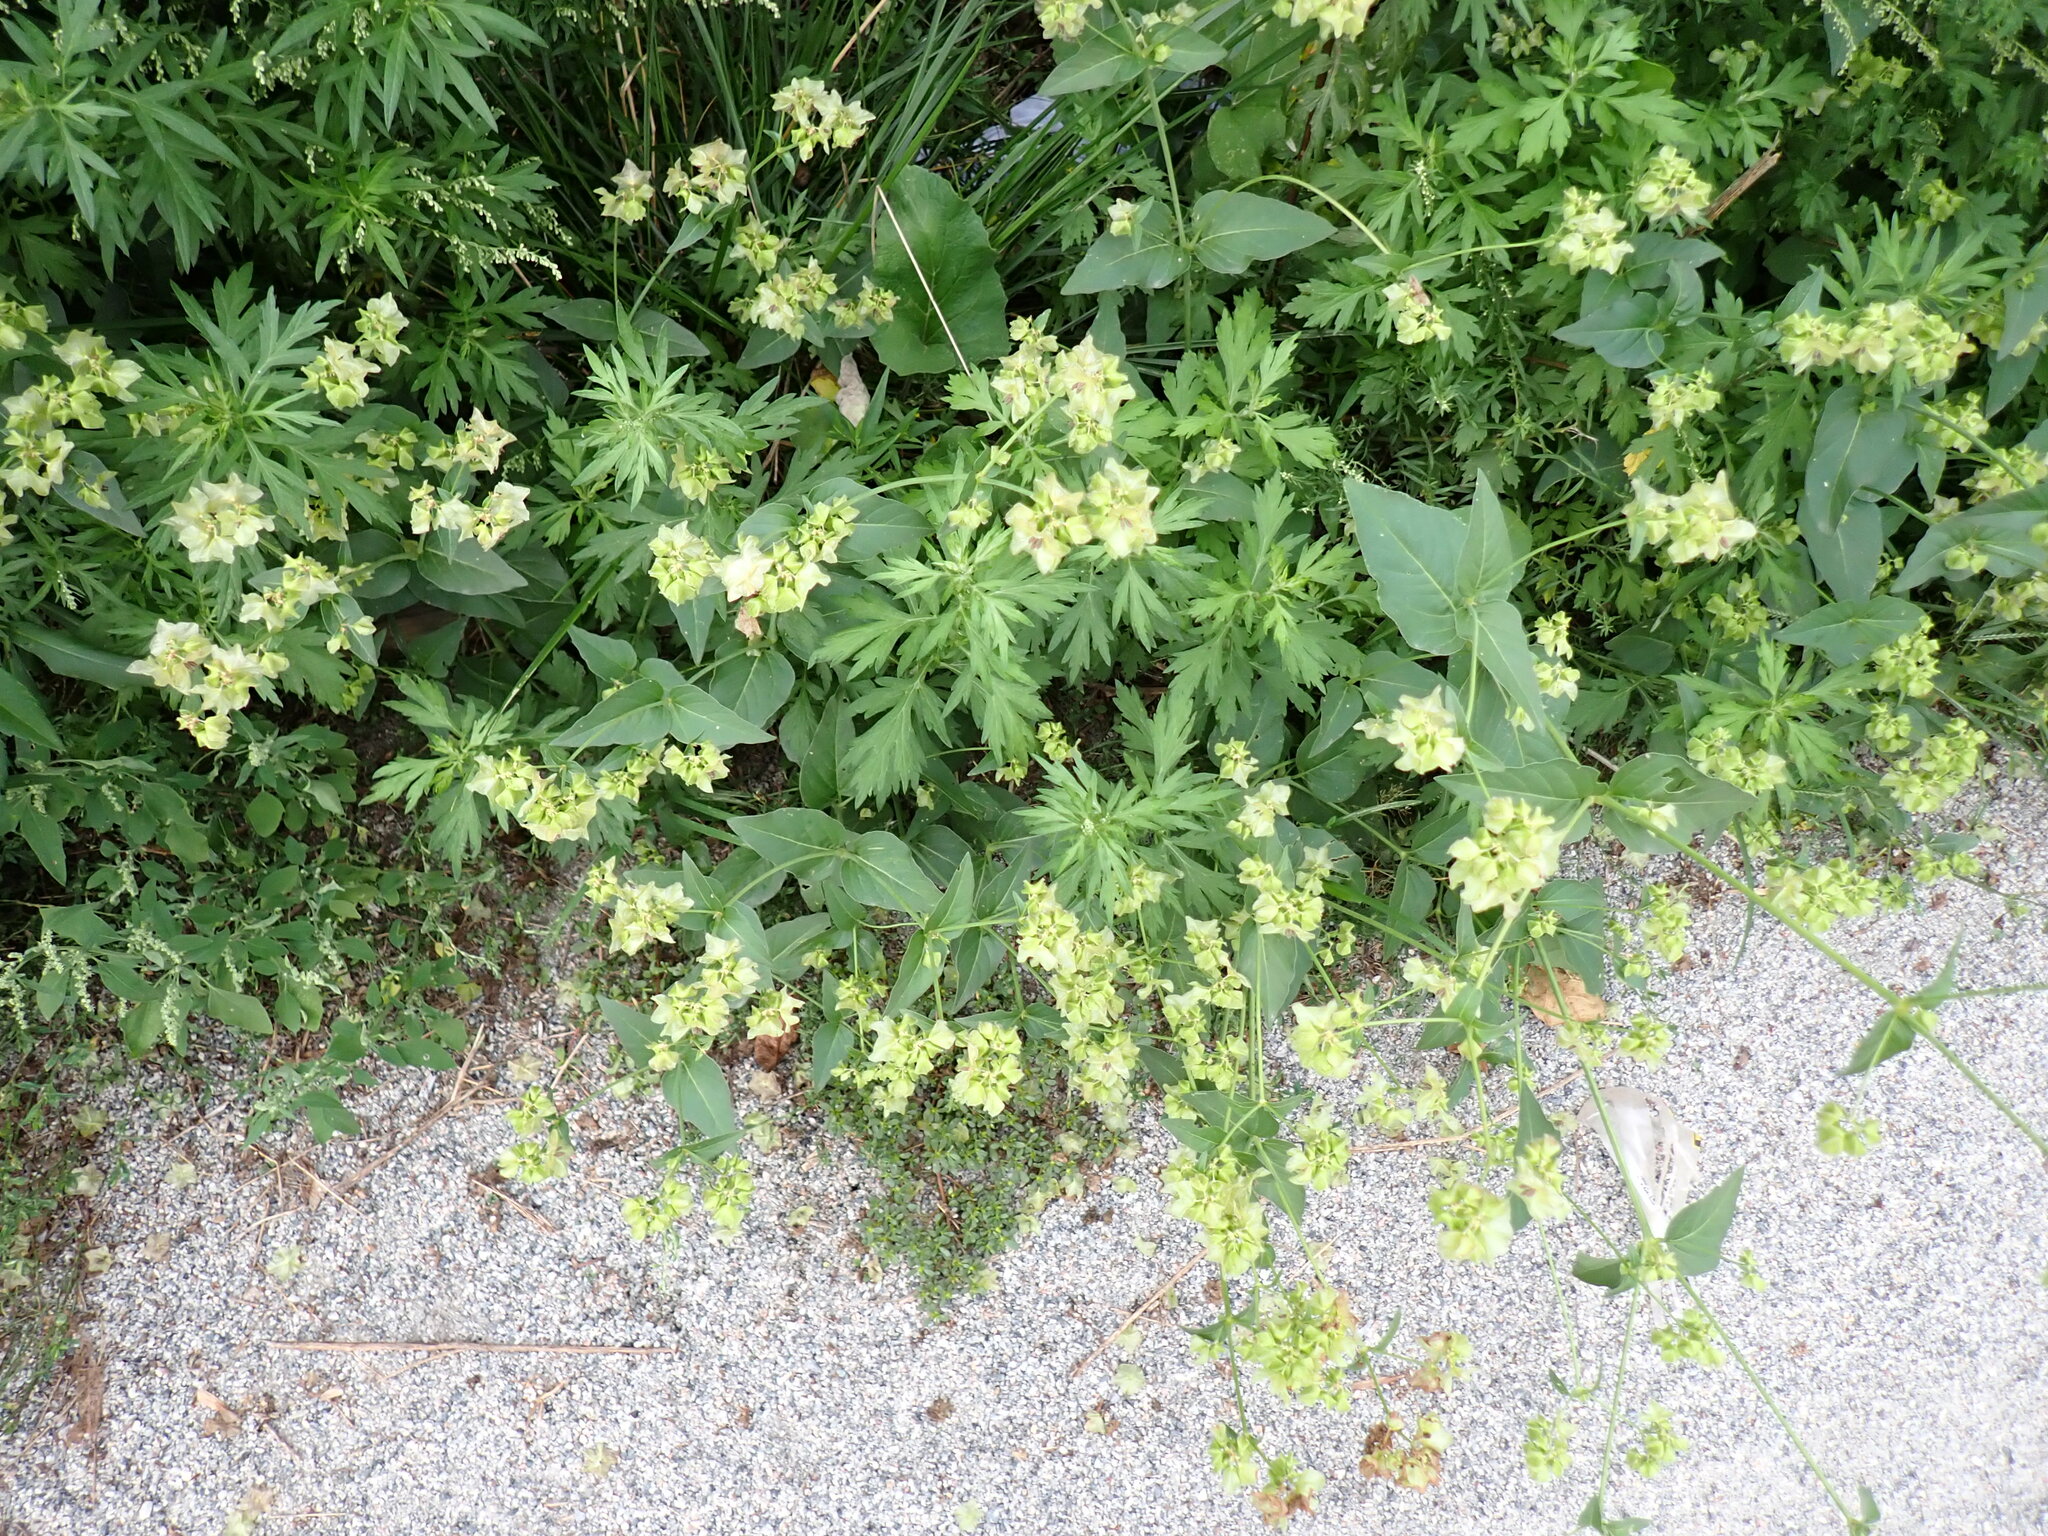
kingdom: Plantae
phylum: Tracheophyta
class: Magnoliopsida
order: Caryophyllales
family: Nyctaginaceae
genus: Mirabilis
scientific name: Mirabilis nyctaginea
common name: Umbrella wort
